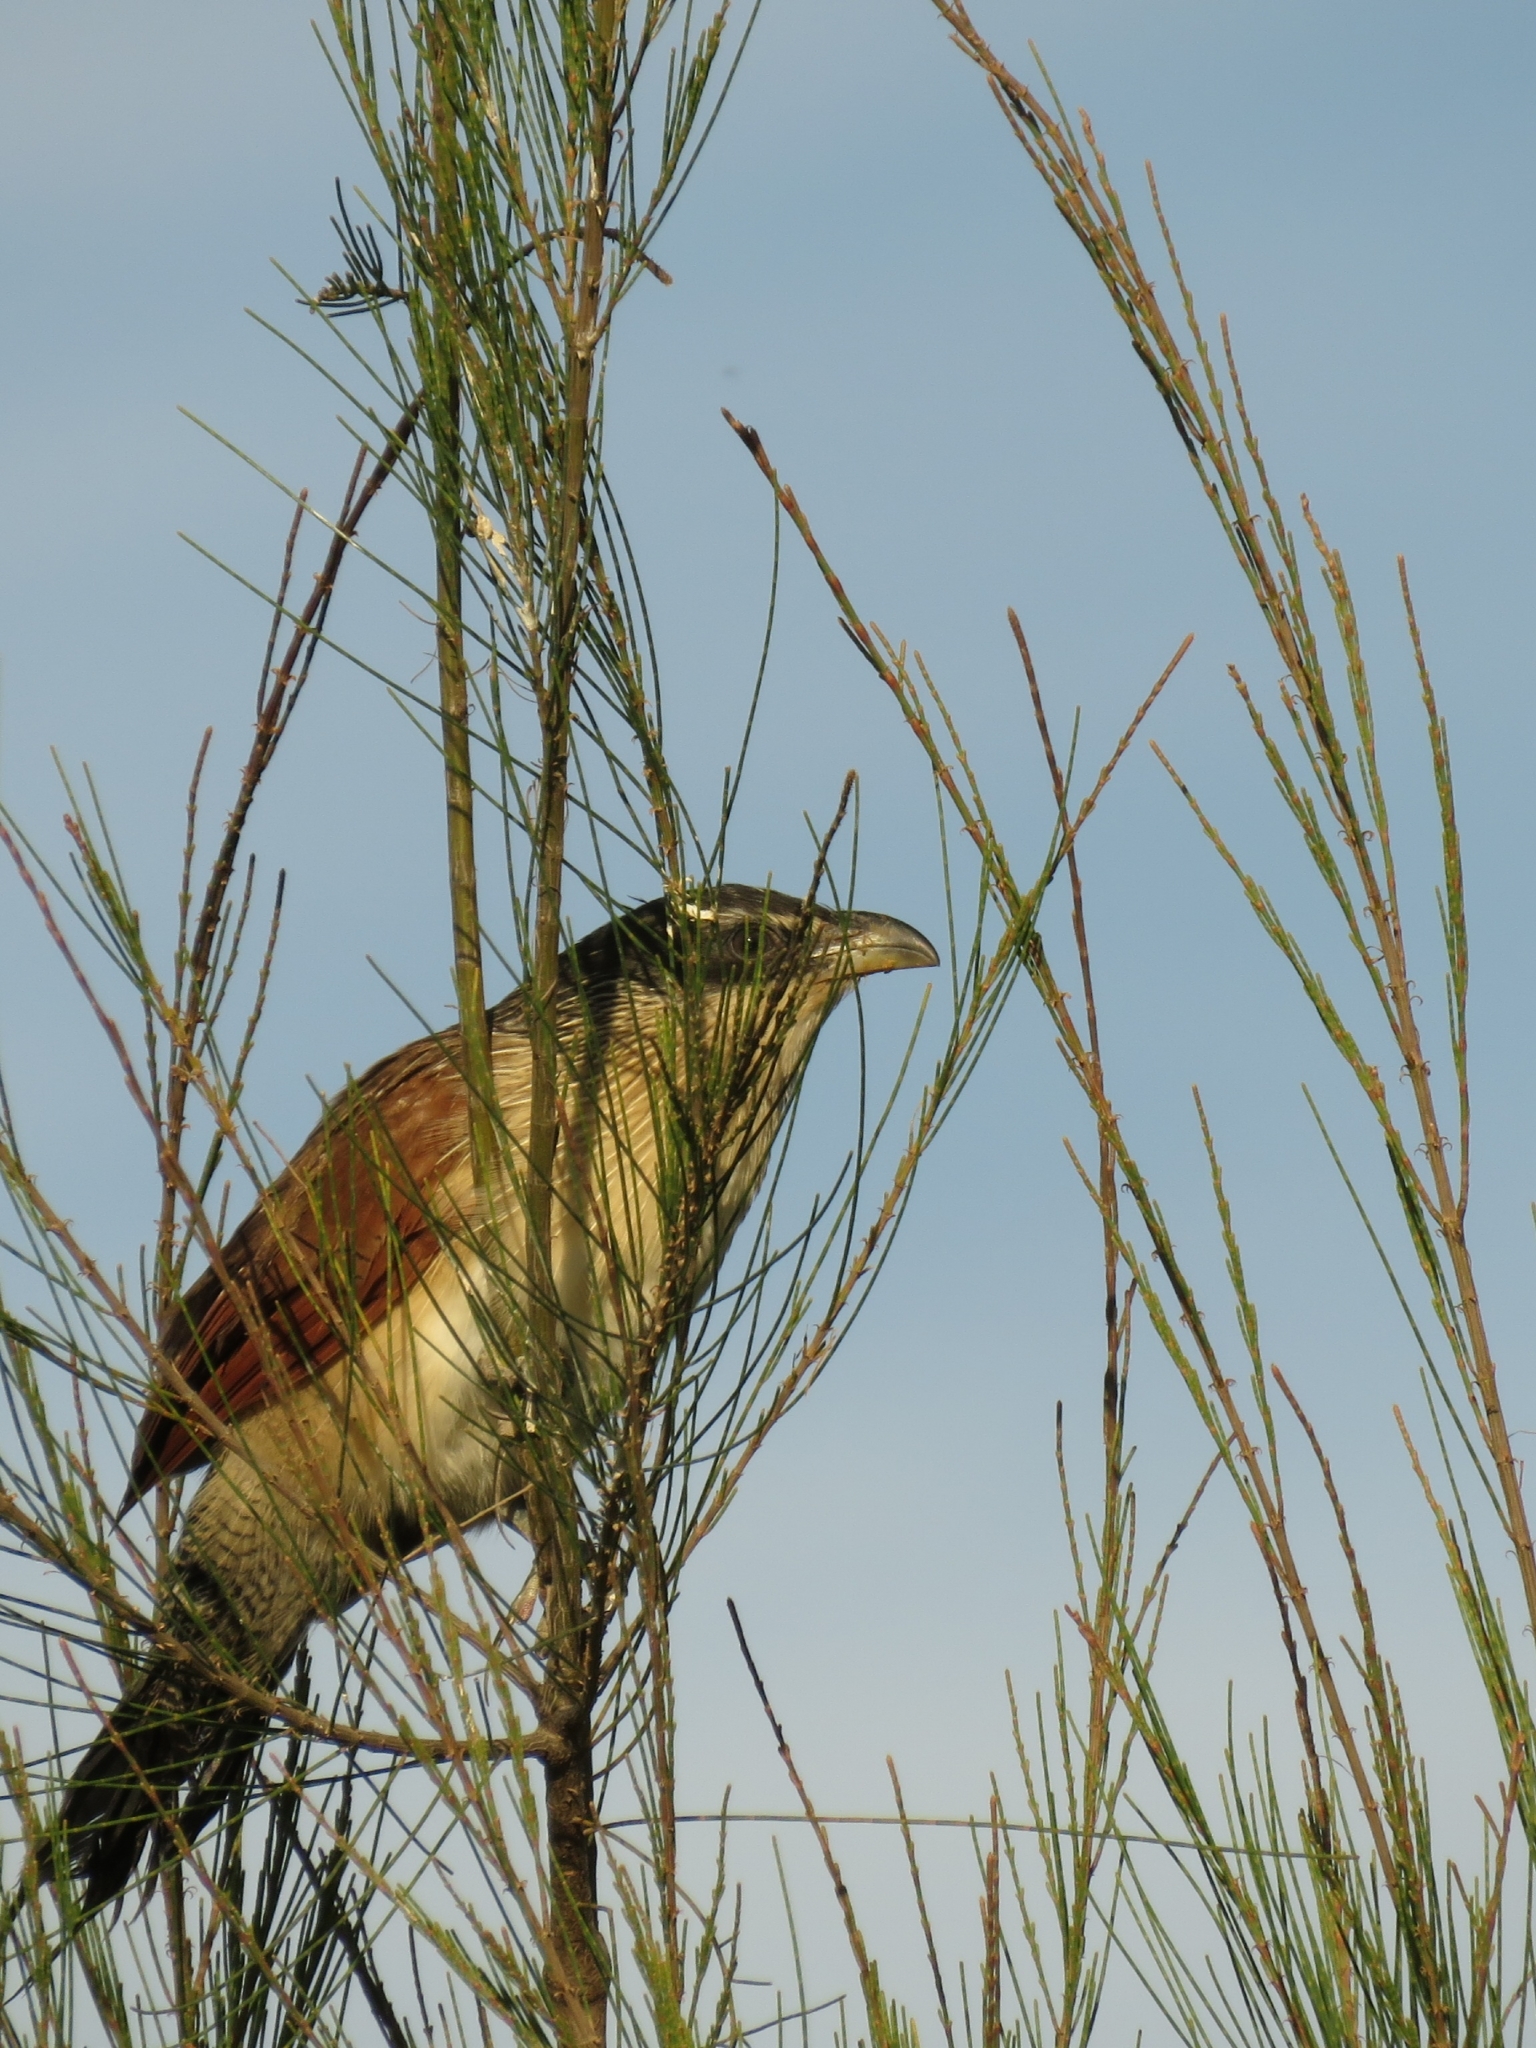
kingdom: Animalia
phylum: Chordata
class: Aves
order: Cuculiformes
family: Cuculidae
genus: Centropus
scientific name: Centropus superciliosus
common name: White-browed coucal
